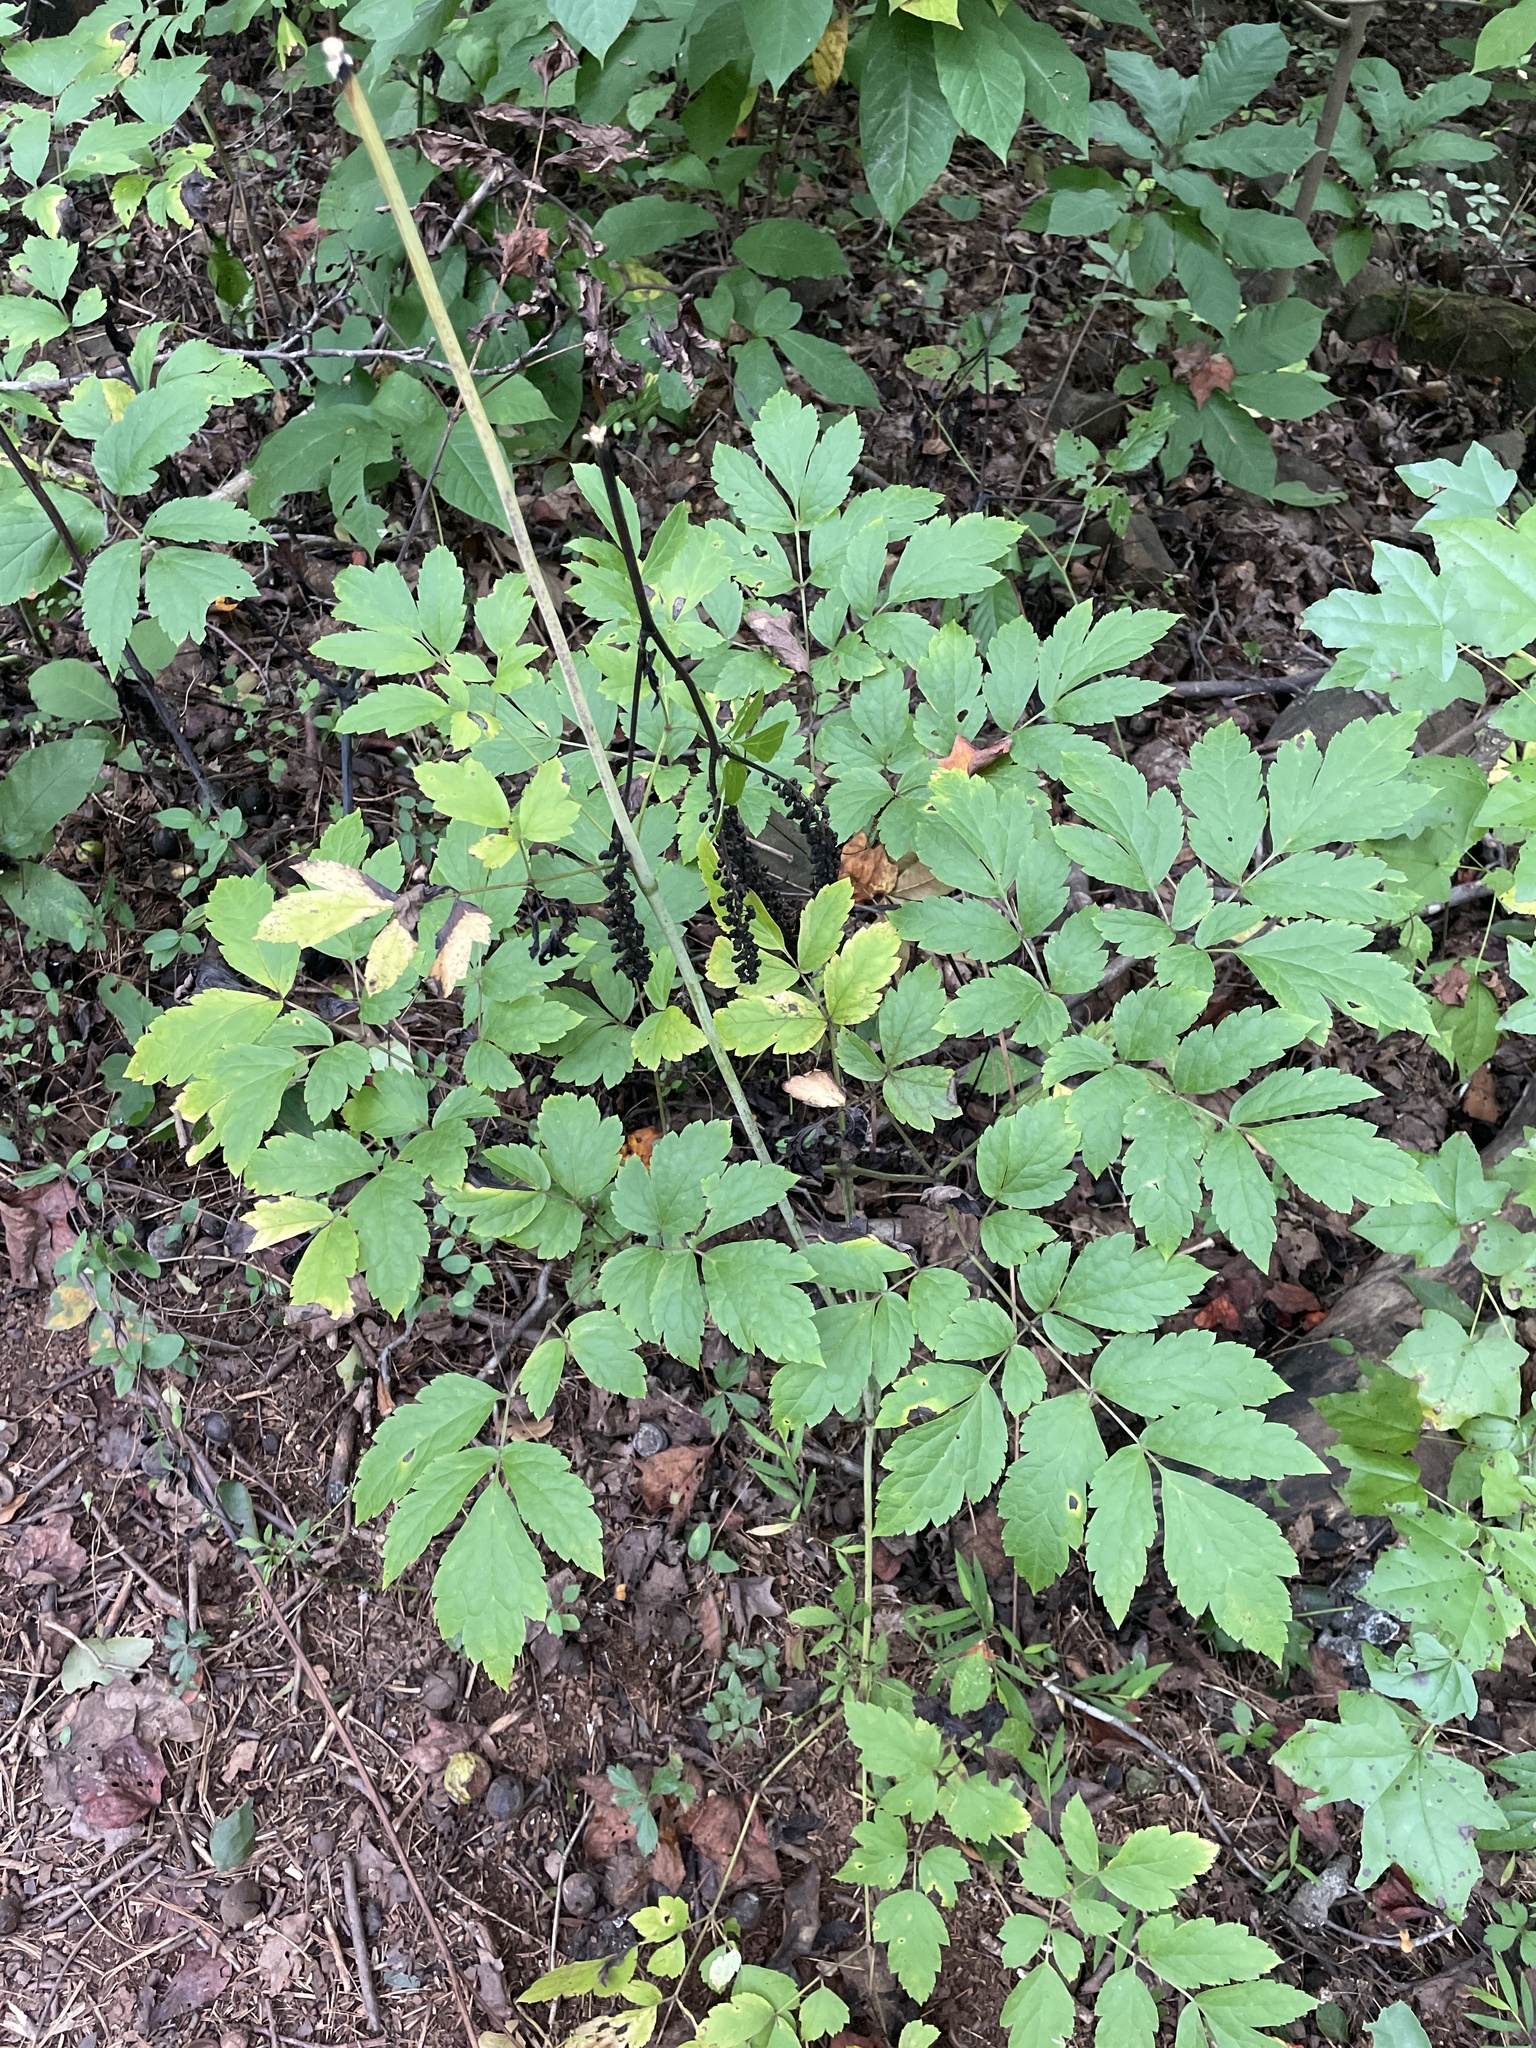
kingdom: Plantae
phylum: Tracheophyta
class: Magnoliopsida
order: Ranunculales
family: Ranunculaceae
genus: Actaea
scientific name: Actaea racemosa
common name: Black cohosh
